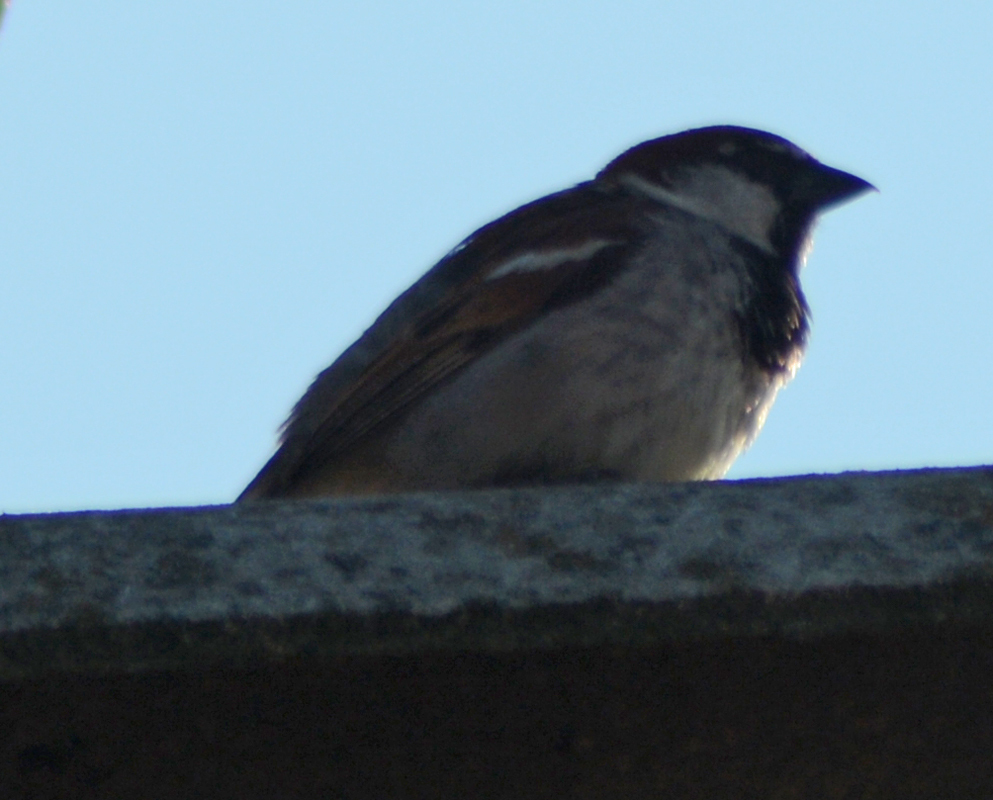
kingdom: Animalia
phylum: Chordata
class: Aves
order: Passeriformes
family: Passeridae
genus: Passer
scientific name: Passer domesticus
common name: House sparrow
